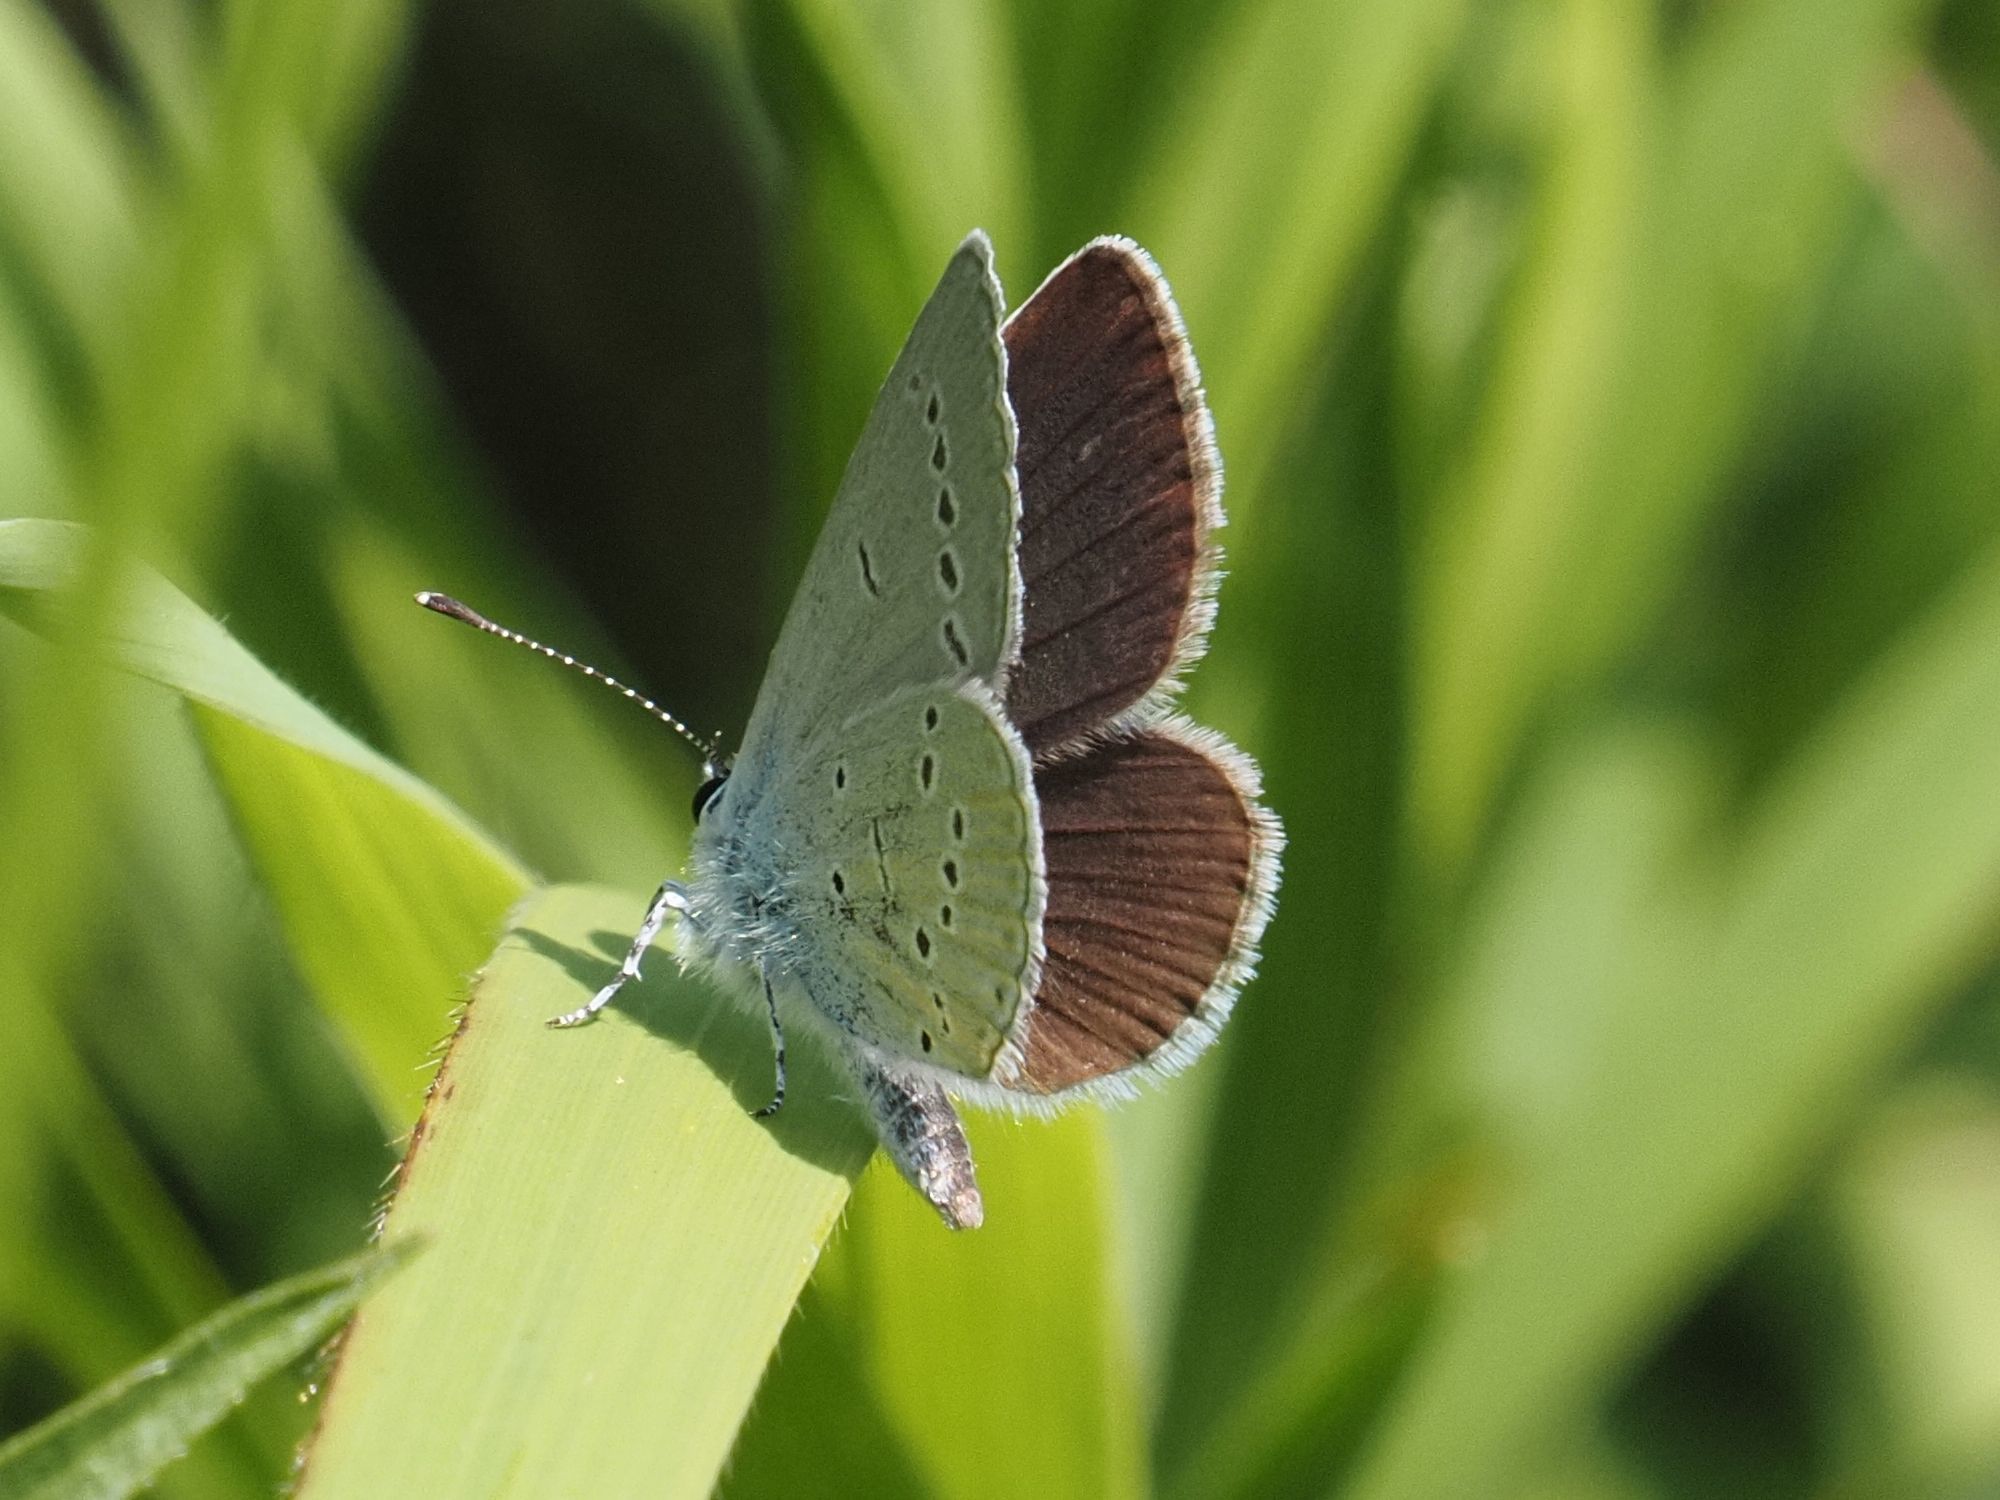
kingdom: Animalia
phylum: Arthropoda
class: Insecta
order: Lepidoptera
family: Lycaenidae
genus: Cupido
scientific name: Cupido minimus
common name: Small blue
